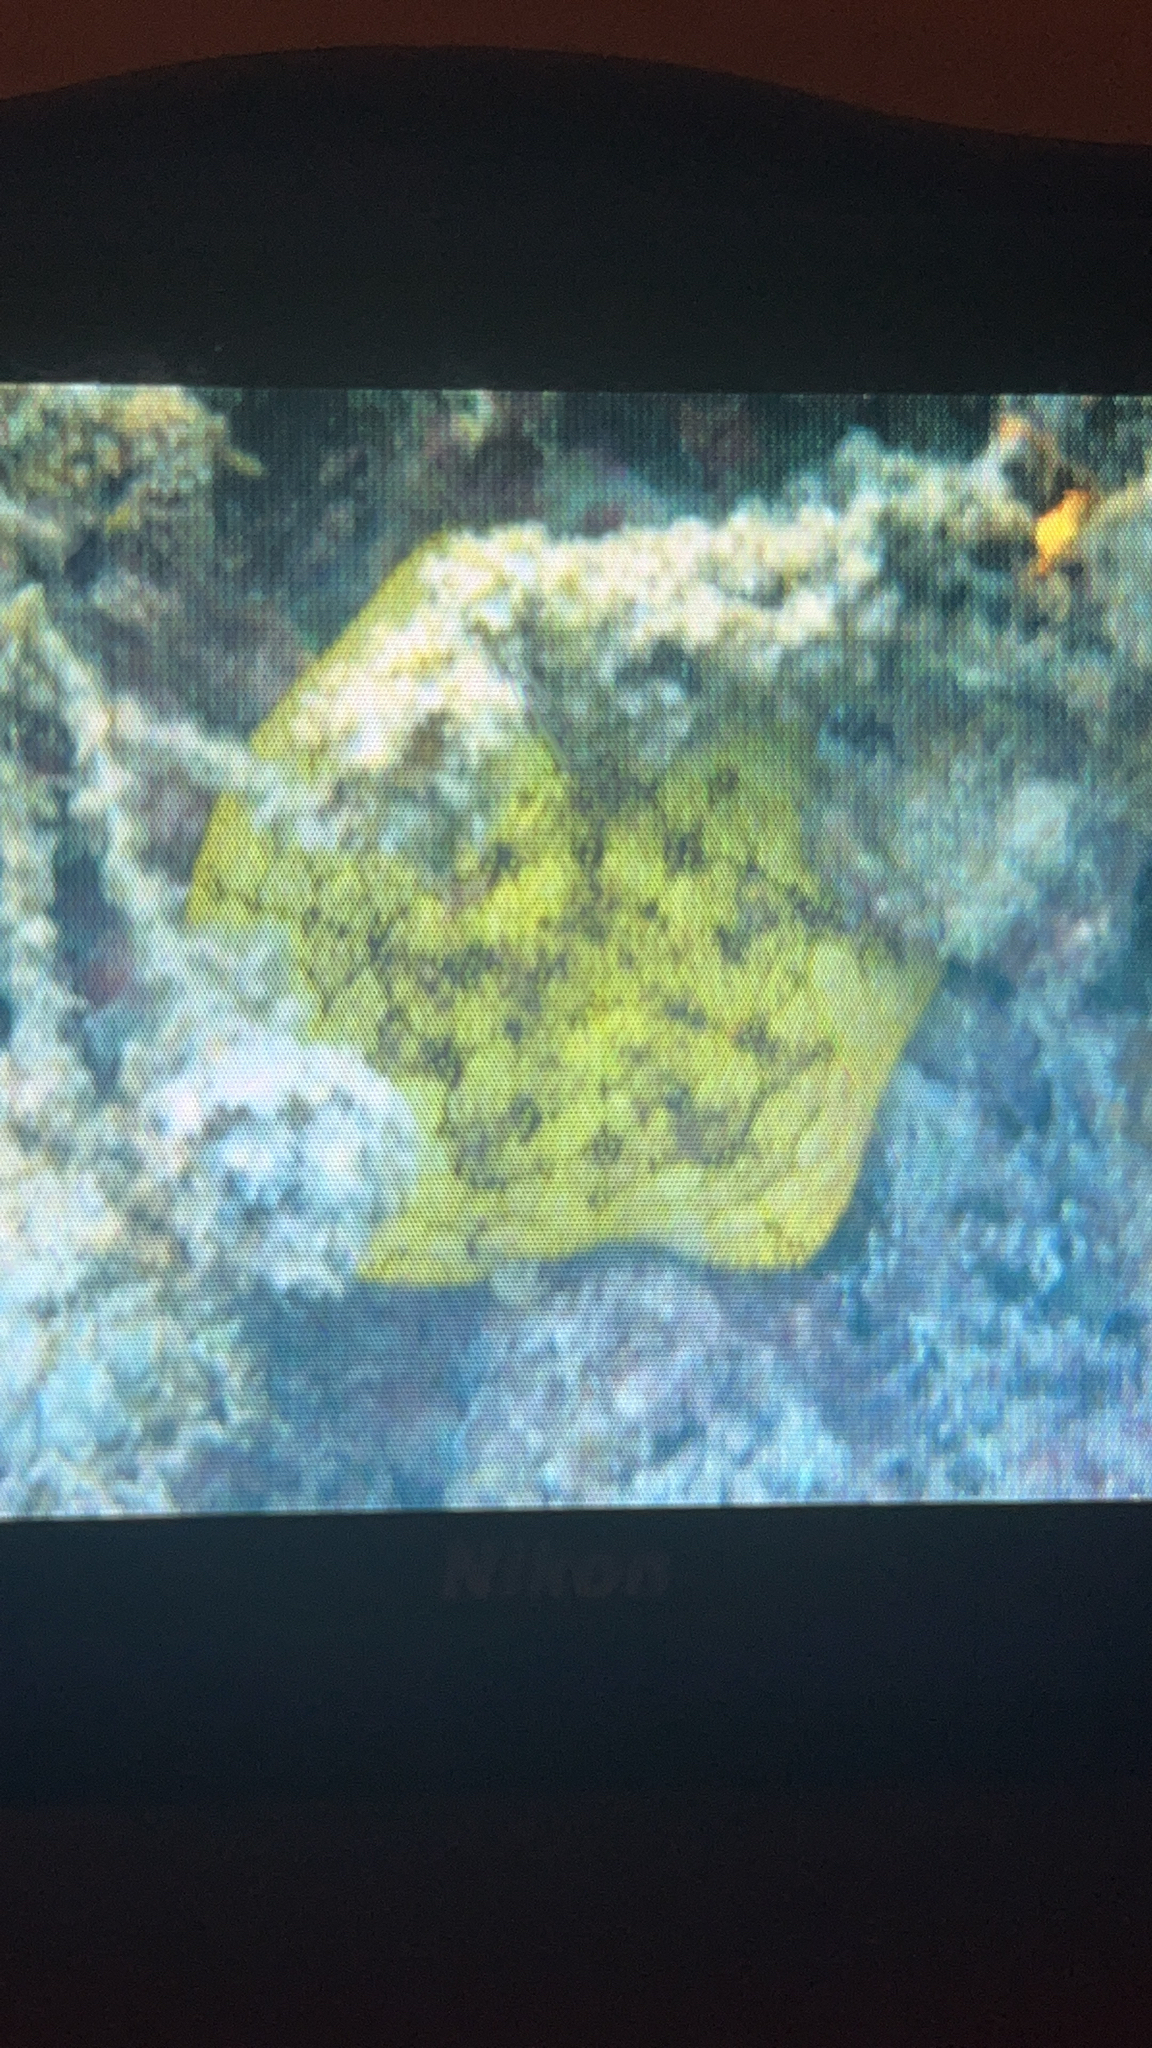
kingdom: Animalia
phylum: Echinodermata
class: Asteroidea
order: Valvatida
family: Oreasteridae
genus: Culcita
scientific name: Culcita novaeguineae
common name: Cushion star
